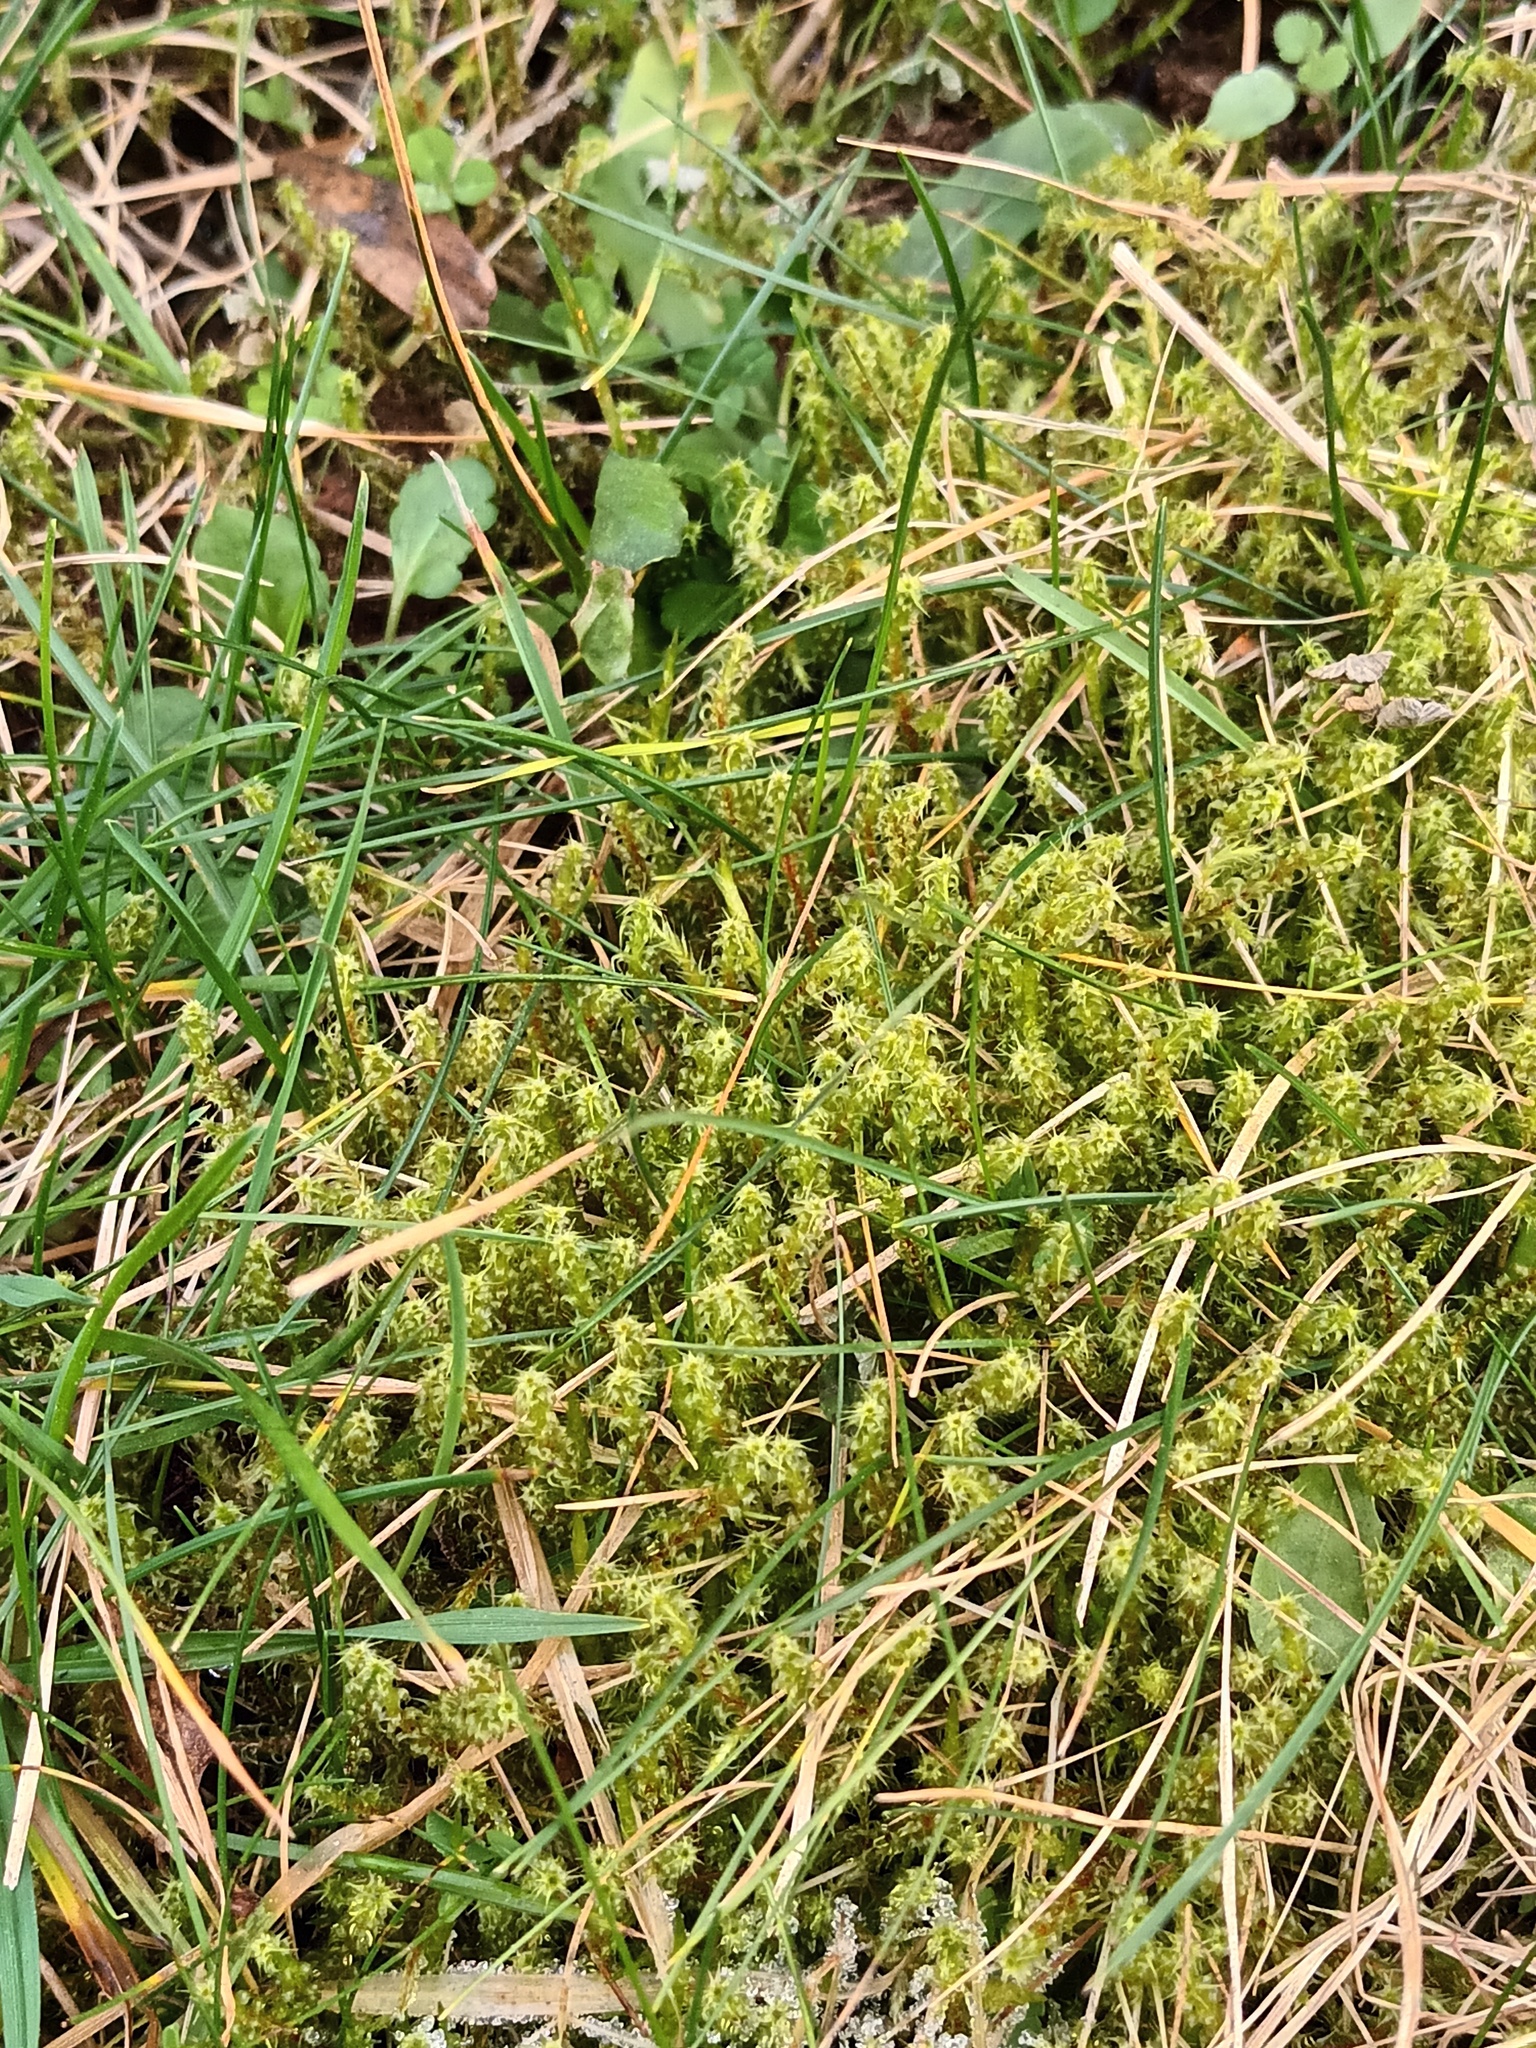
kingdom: Plantae
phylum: Bryophyta
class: Bryopsida
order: Hypnales
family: Hylocomiaceae
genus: Rhytidiadelphus
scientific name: Rhytidiadelphus squarrosus
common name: Springy turf-moss
